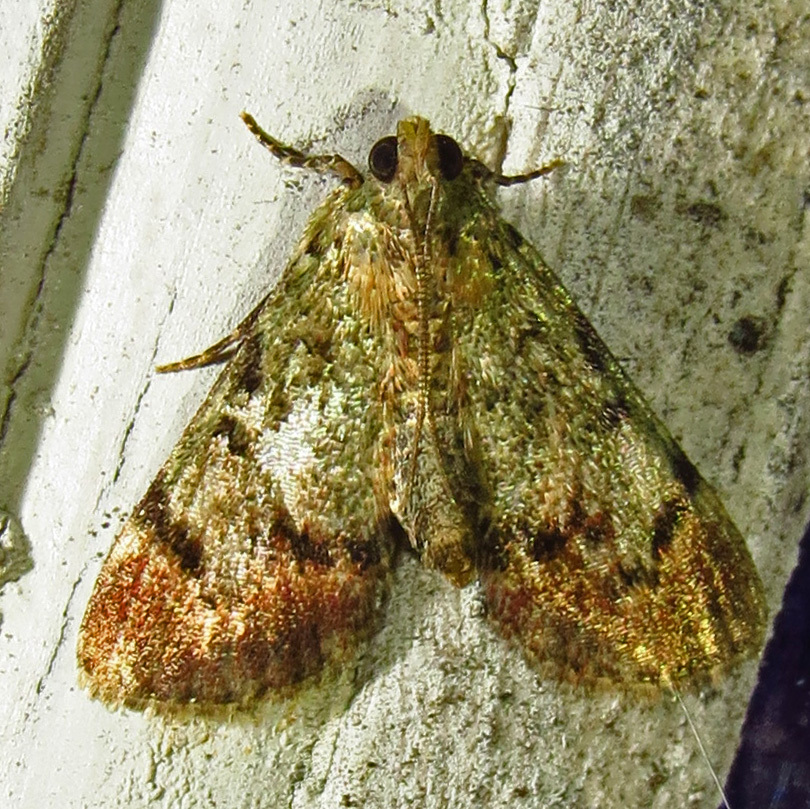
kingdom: Animalia
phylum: Arthropoda
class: Insecta
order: Lepidoptera
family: Pyralidae
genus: Epipaschia
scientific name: Epipaschia superatalis
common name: Dimorphic macalla moth
